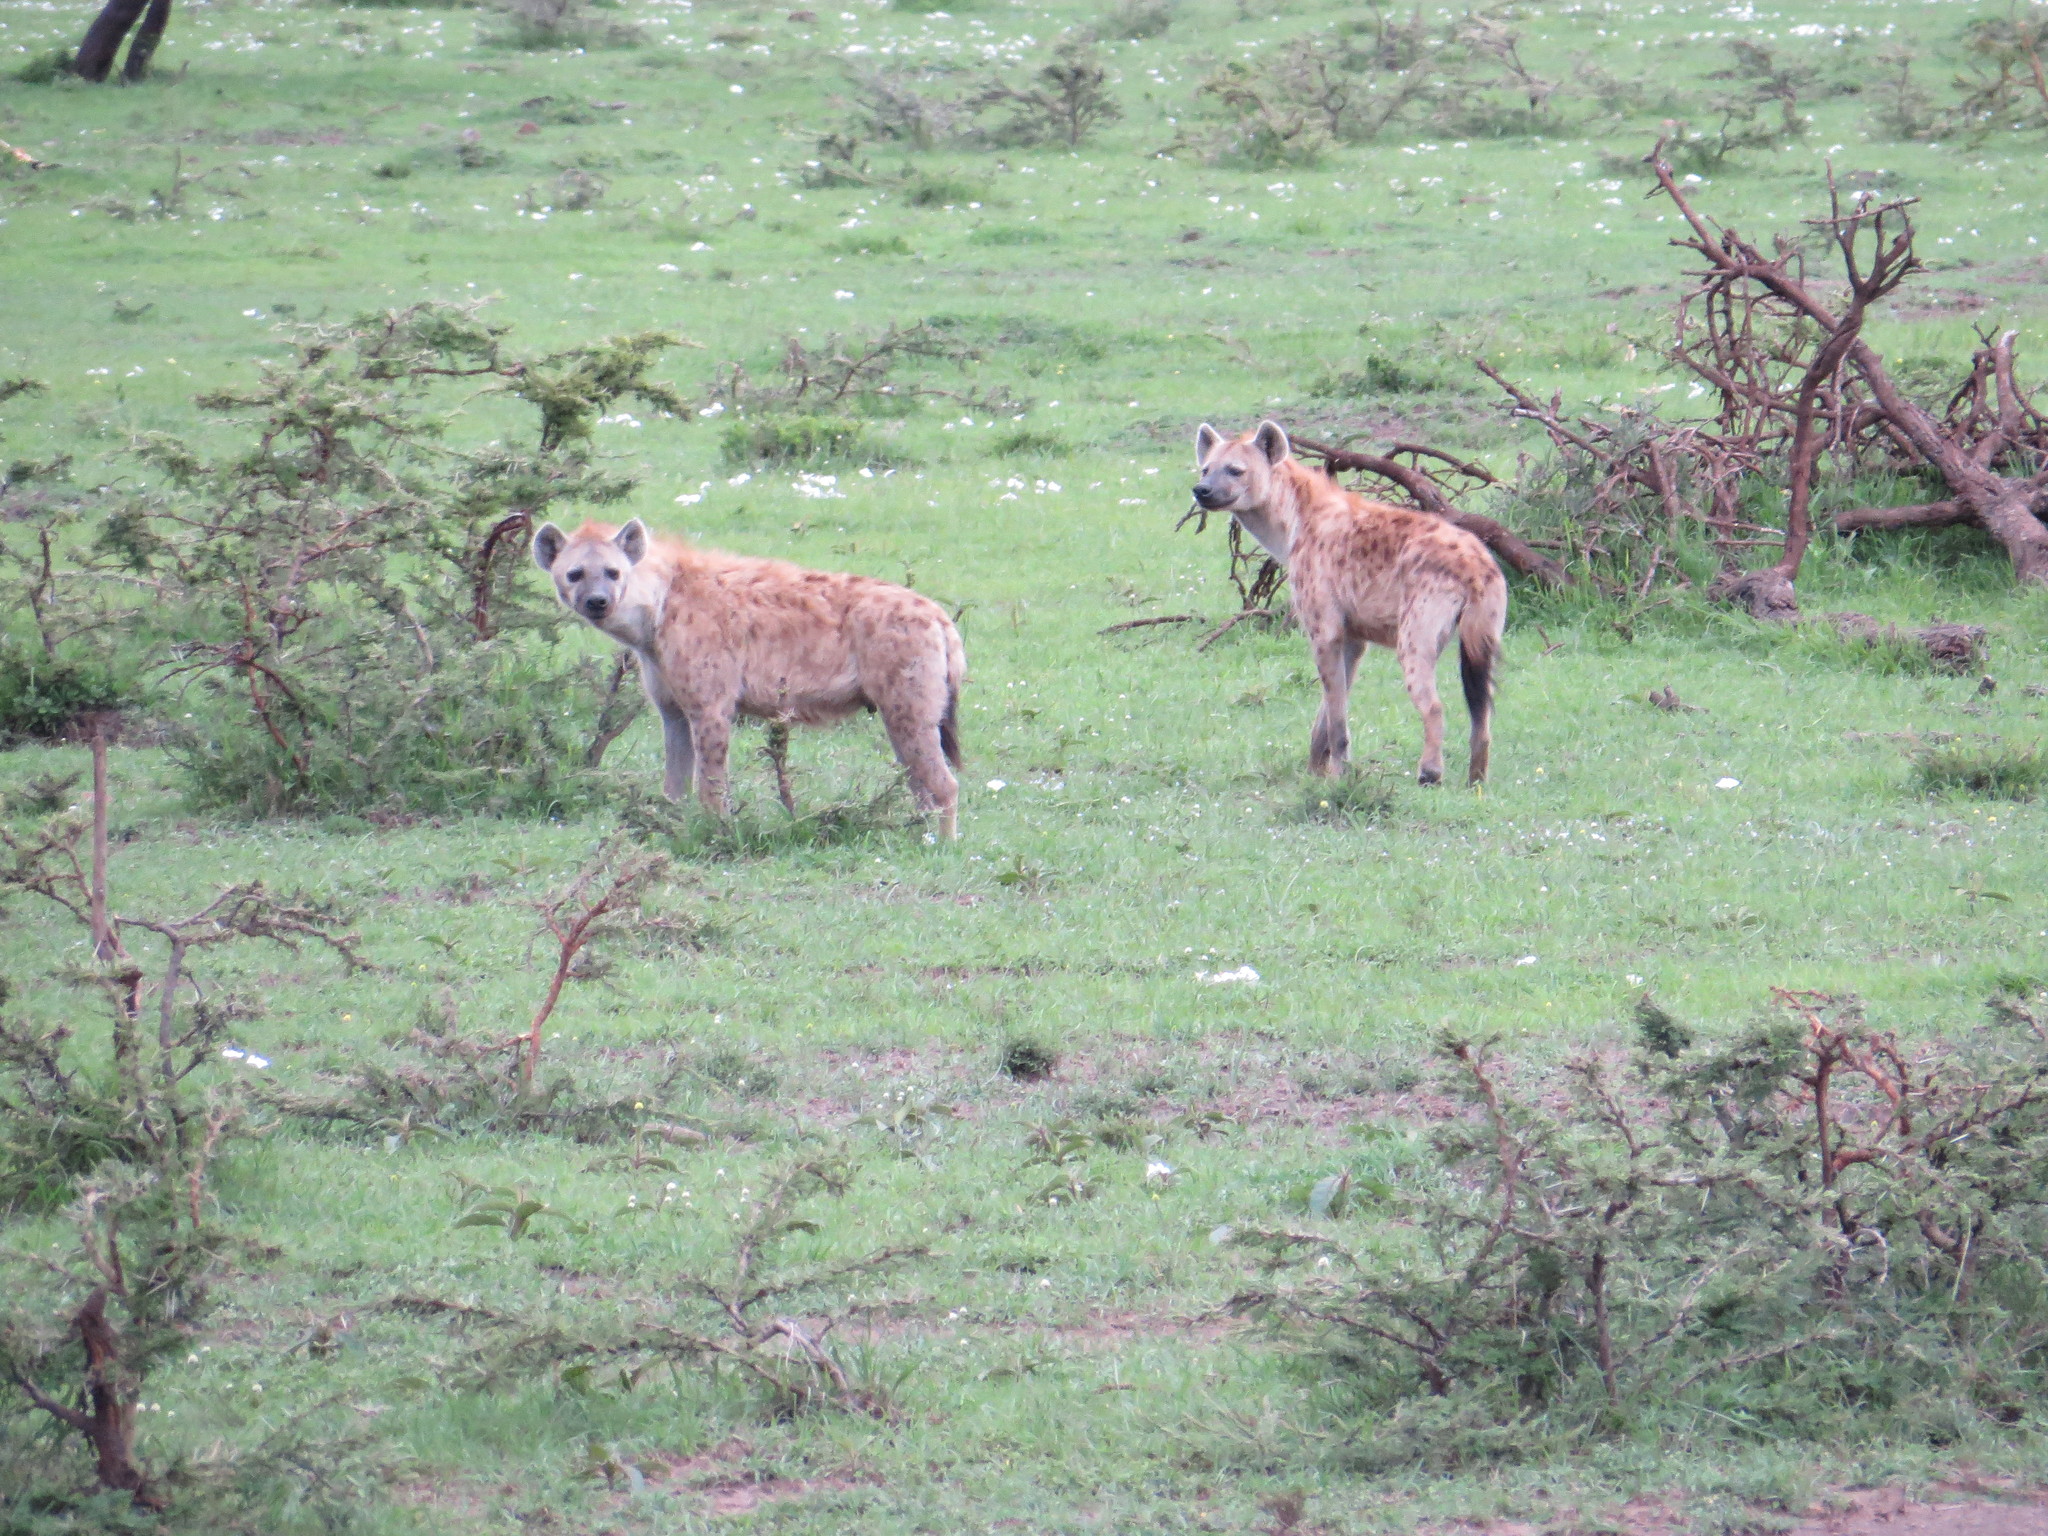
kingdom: Animalia
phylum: Chordata
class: Mammalia
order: Carnivora
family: Hyaenidae
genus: Crocuta
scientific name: Crocuta crocuta
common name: Spotted hyaena
